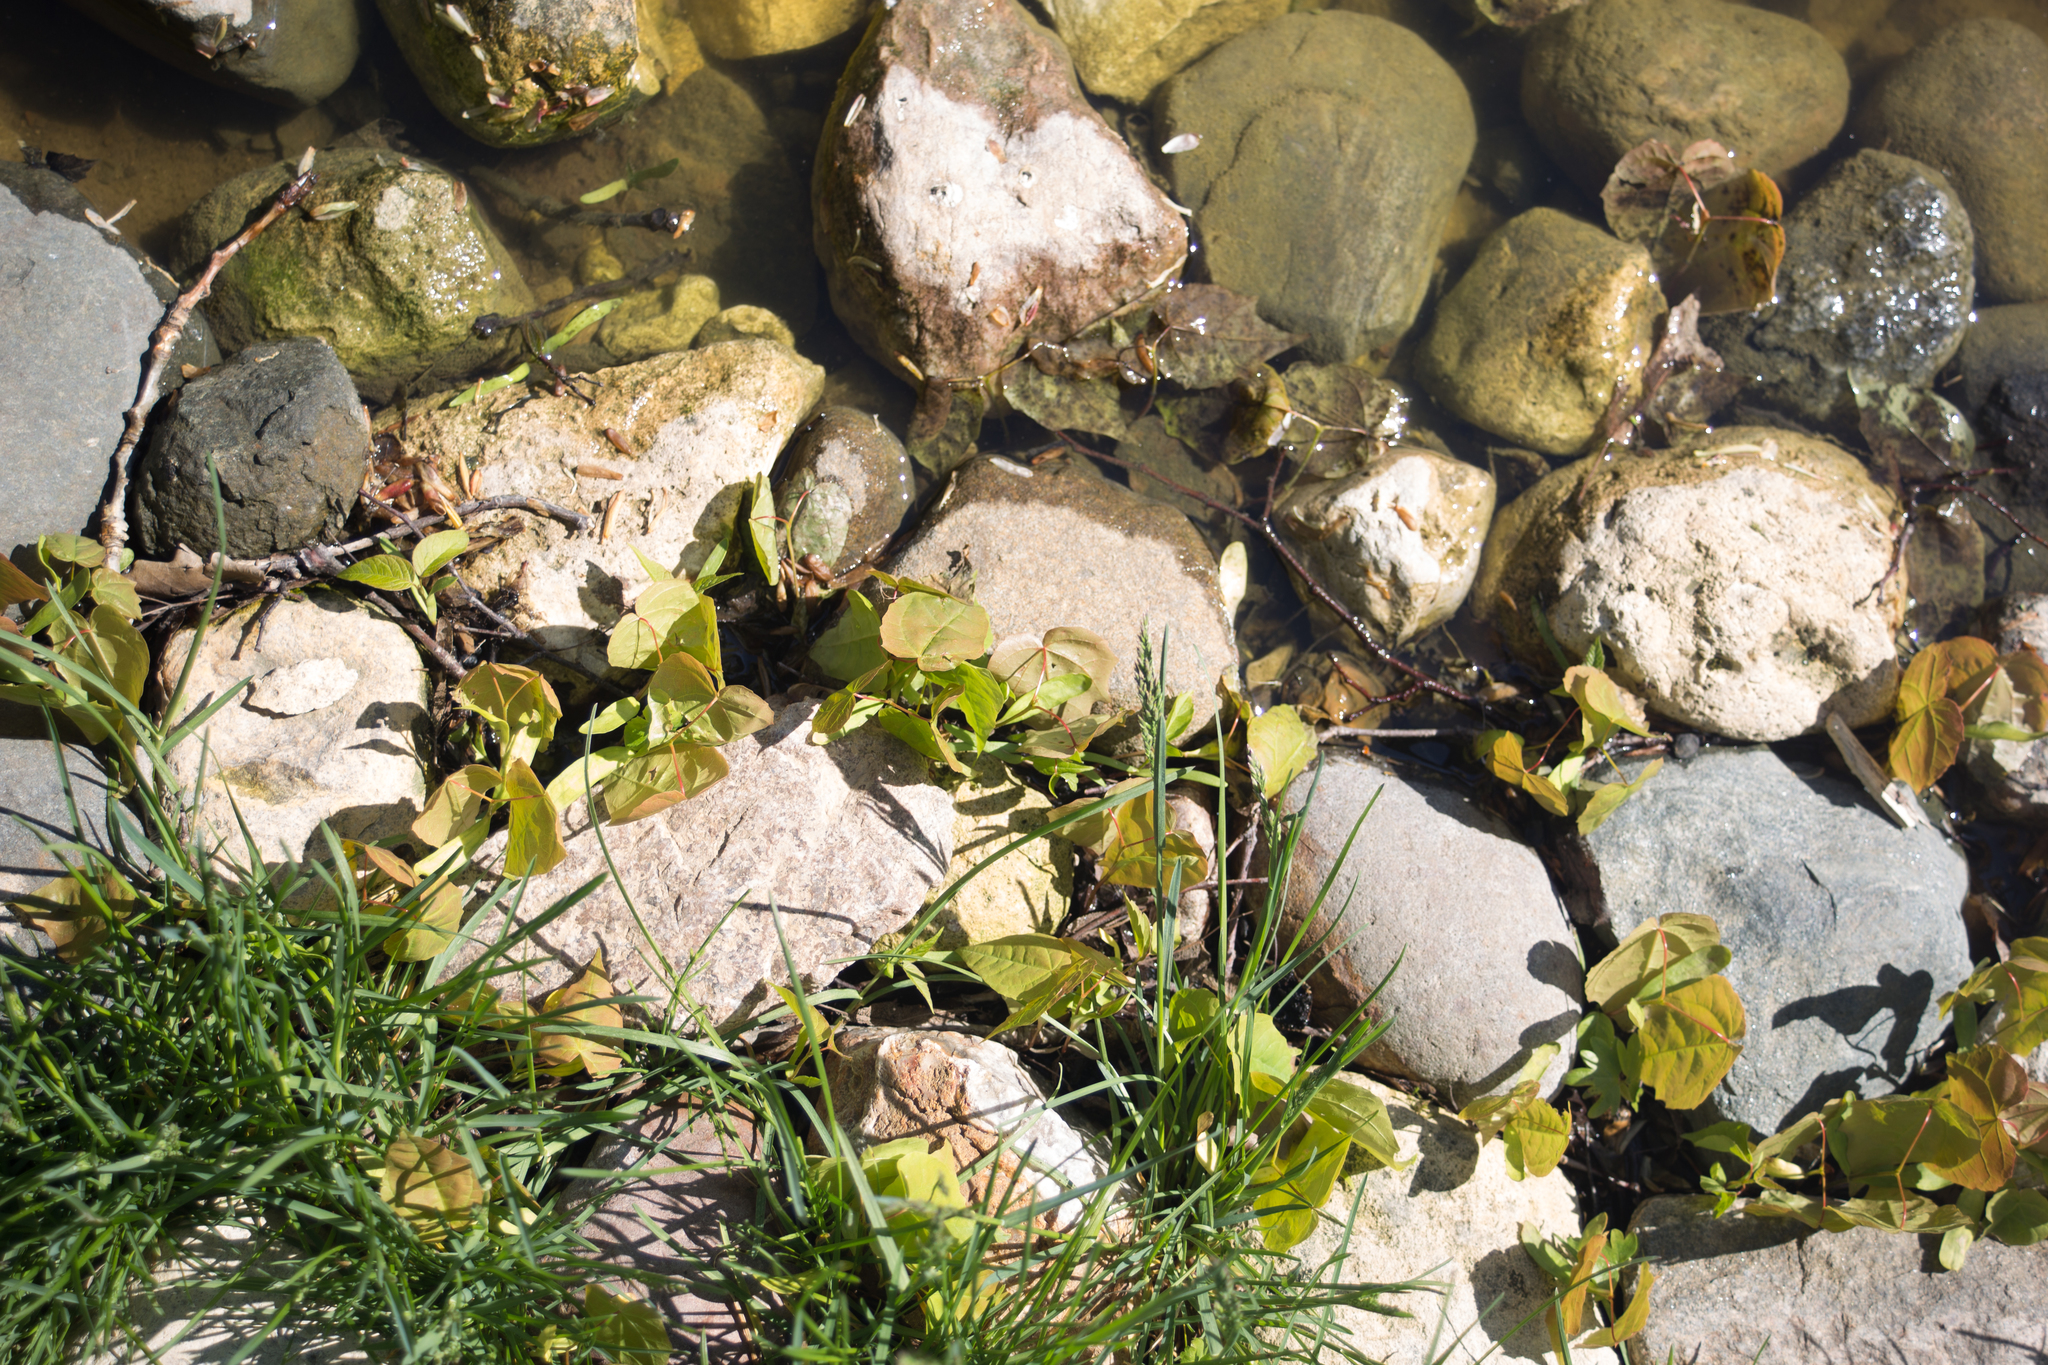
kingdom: Plantae
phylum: Tracheophyta
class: Magnoliopsida
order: Sapindales
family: Sapindaceae
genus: Acer
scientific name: Acer platanoides
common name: Norway maple
